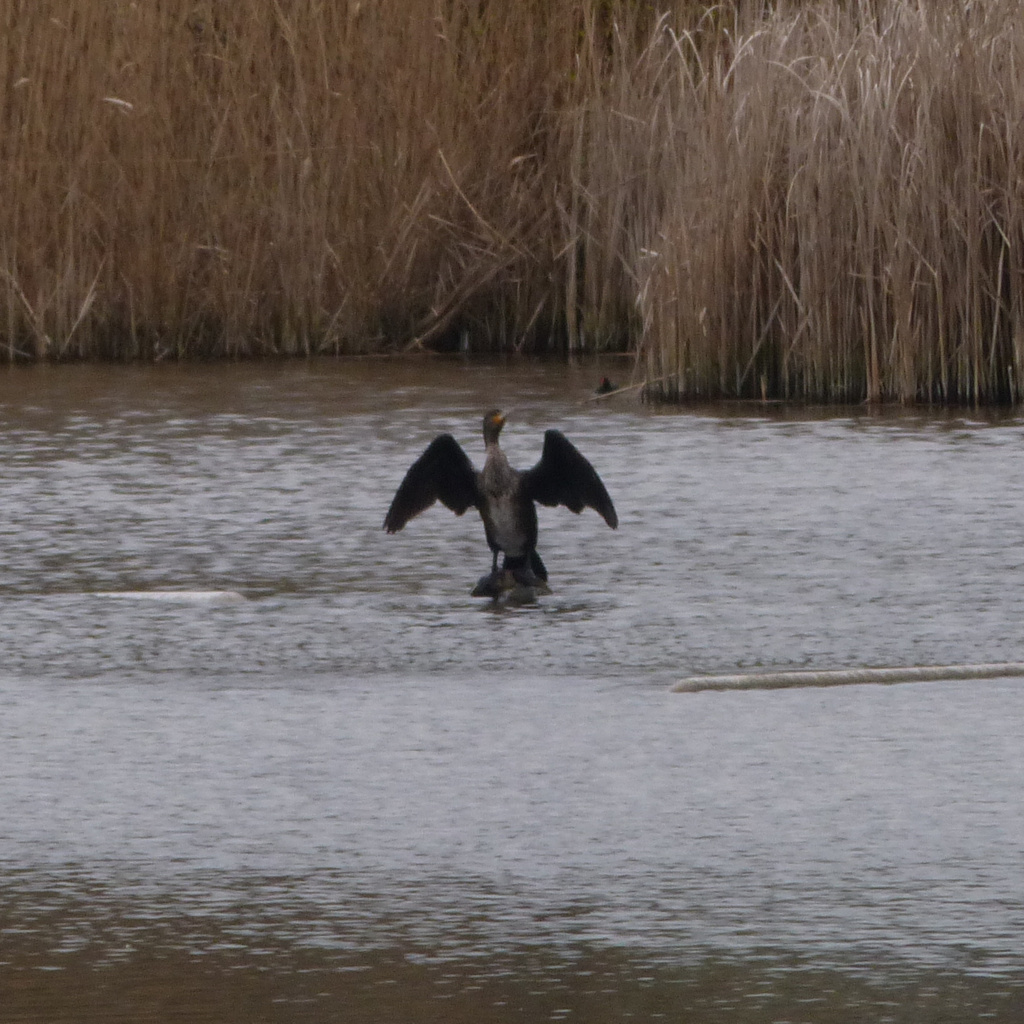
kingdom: Animalia
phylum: Chordata
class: Aves
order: Suliformes
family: Phalacrocoracidae
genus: Phalacrocorax
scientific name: Phalacrocorax carbo
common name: Great cormorant
